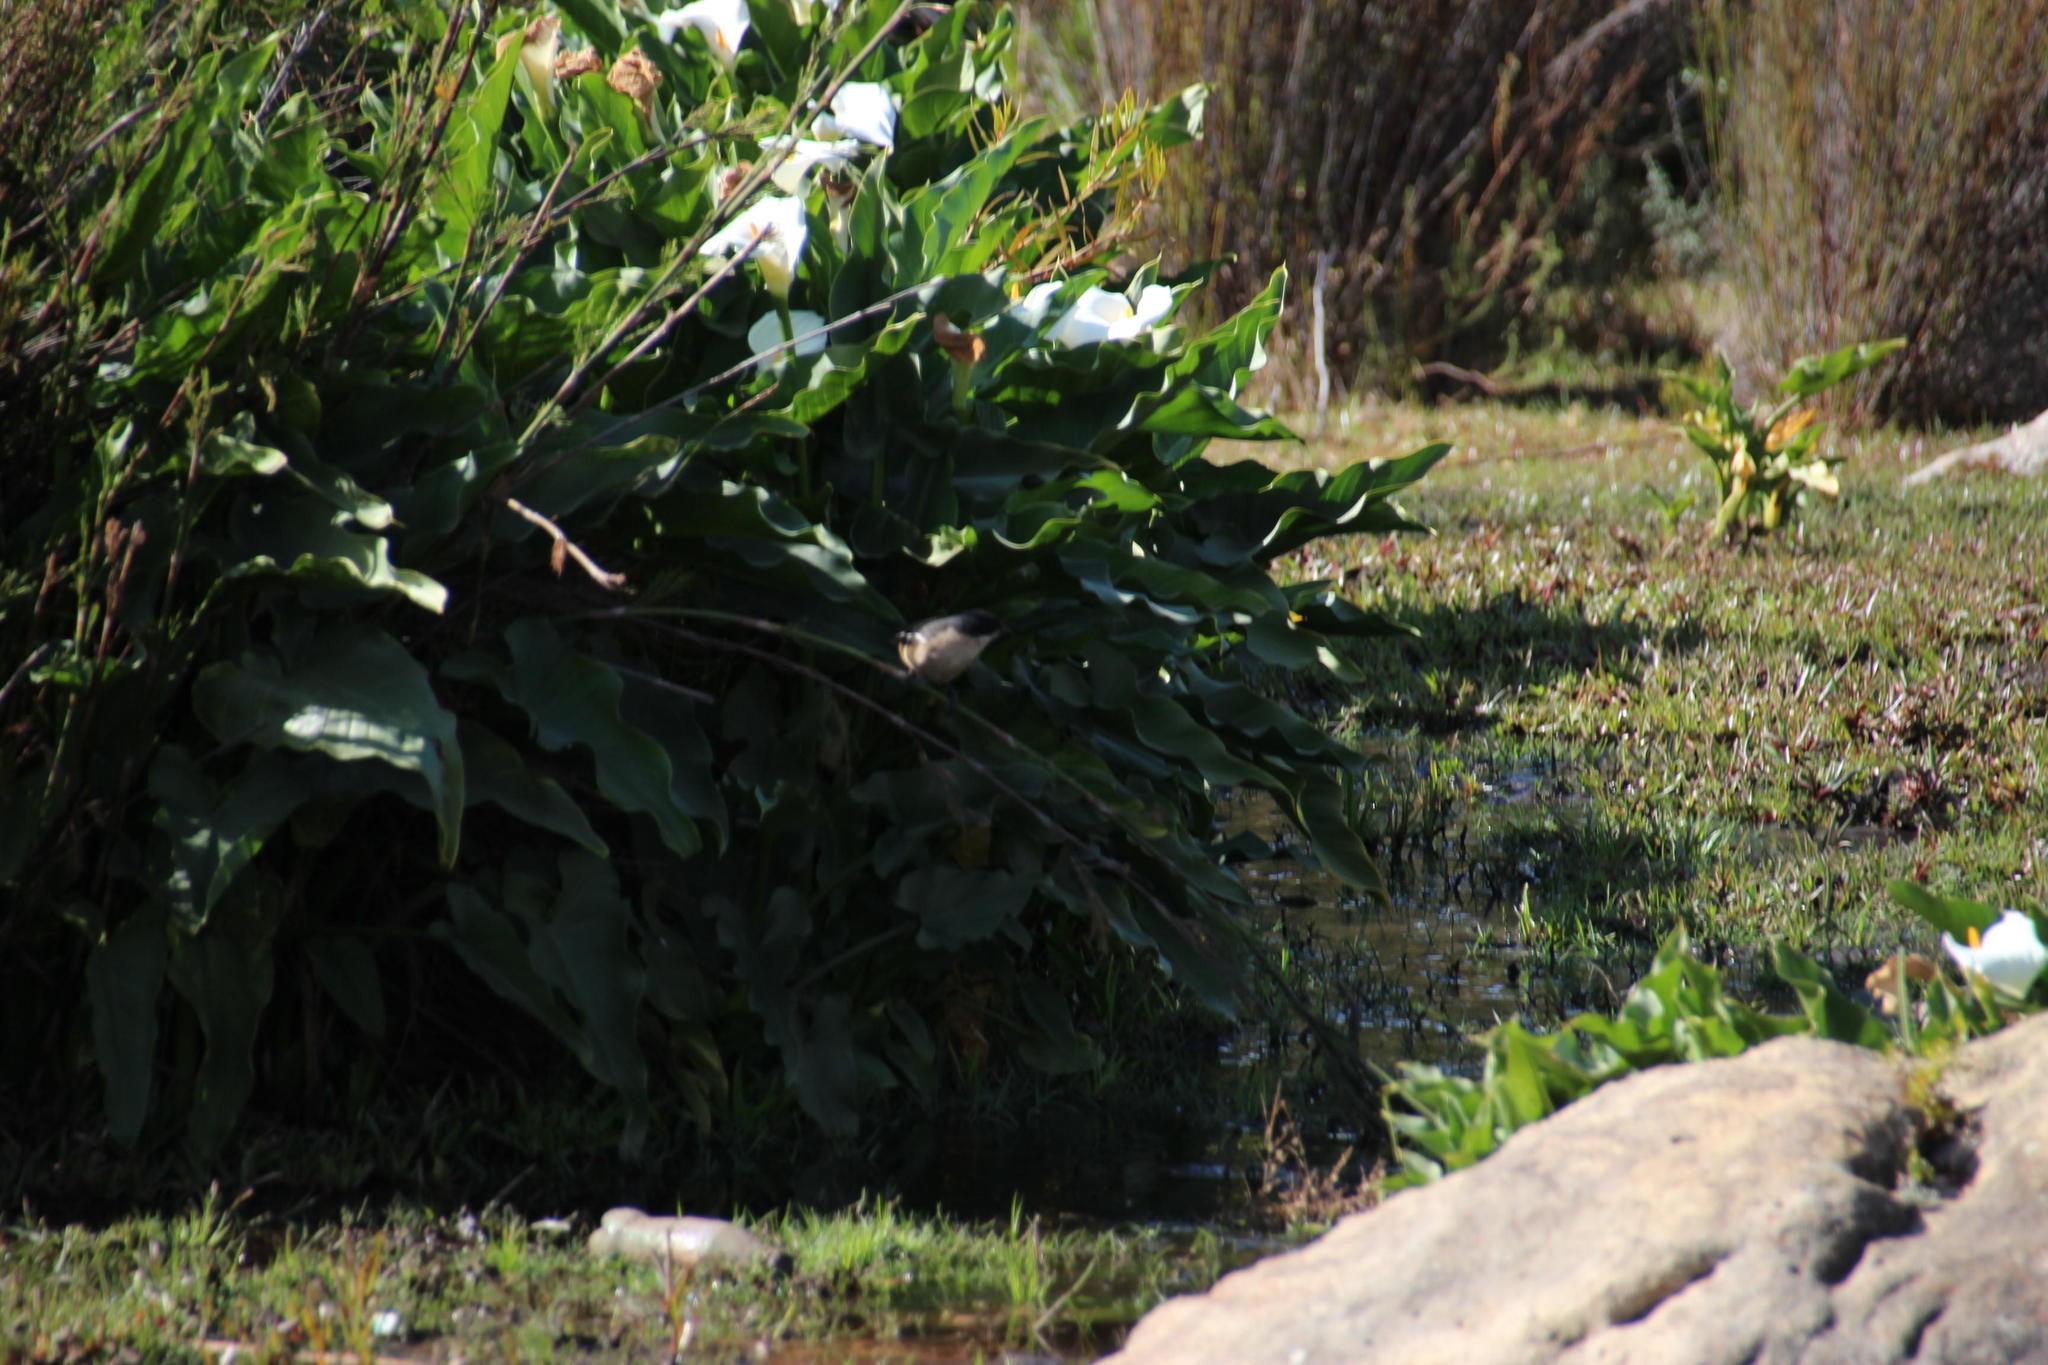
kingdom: Plantae
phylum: Tracheophyta
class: Liliopsida
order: Alismatales
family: Araceae
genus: Zantedeschia
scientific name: Zantedeschia aethiopica
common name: Altar-lily
